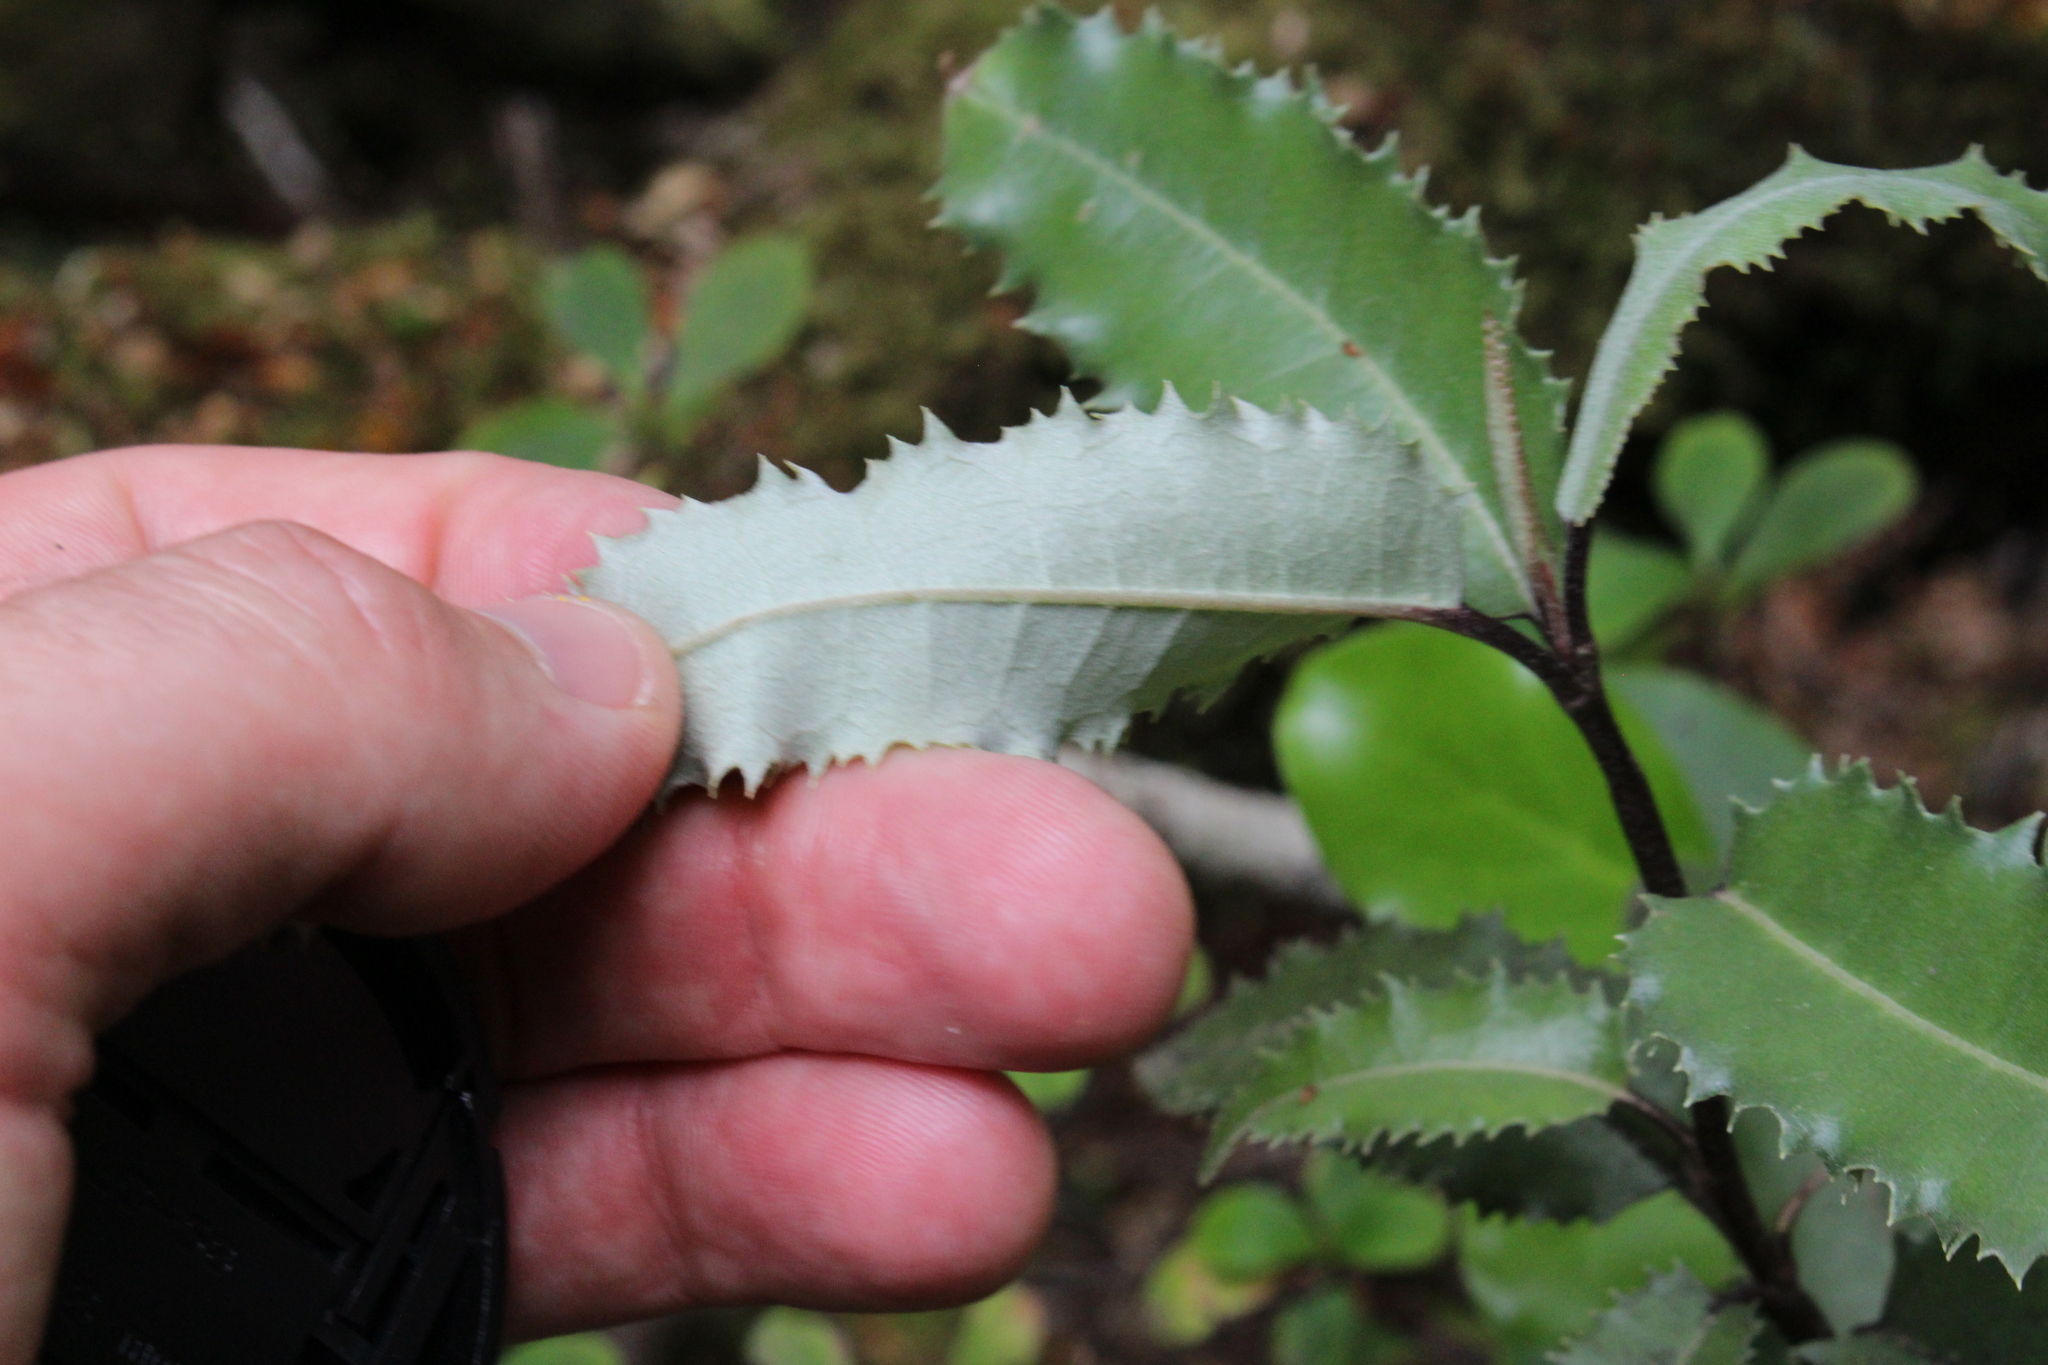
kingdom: Plantae
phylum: Tracheophyta
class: Magnoliopsida
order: Asterales
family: Asteraceae
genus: Olearia
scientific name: Olearia ilicifolia
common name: Maori-holly
